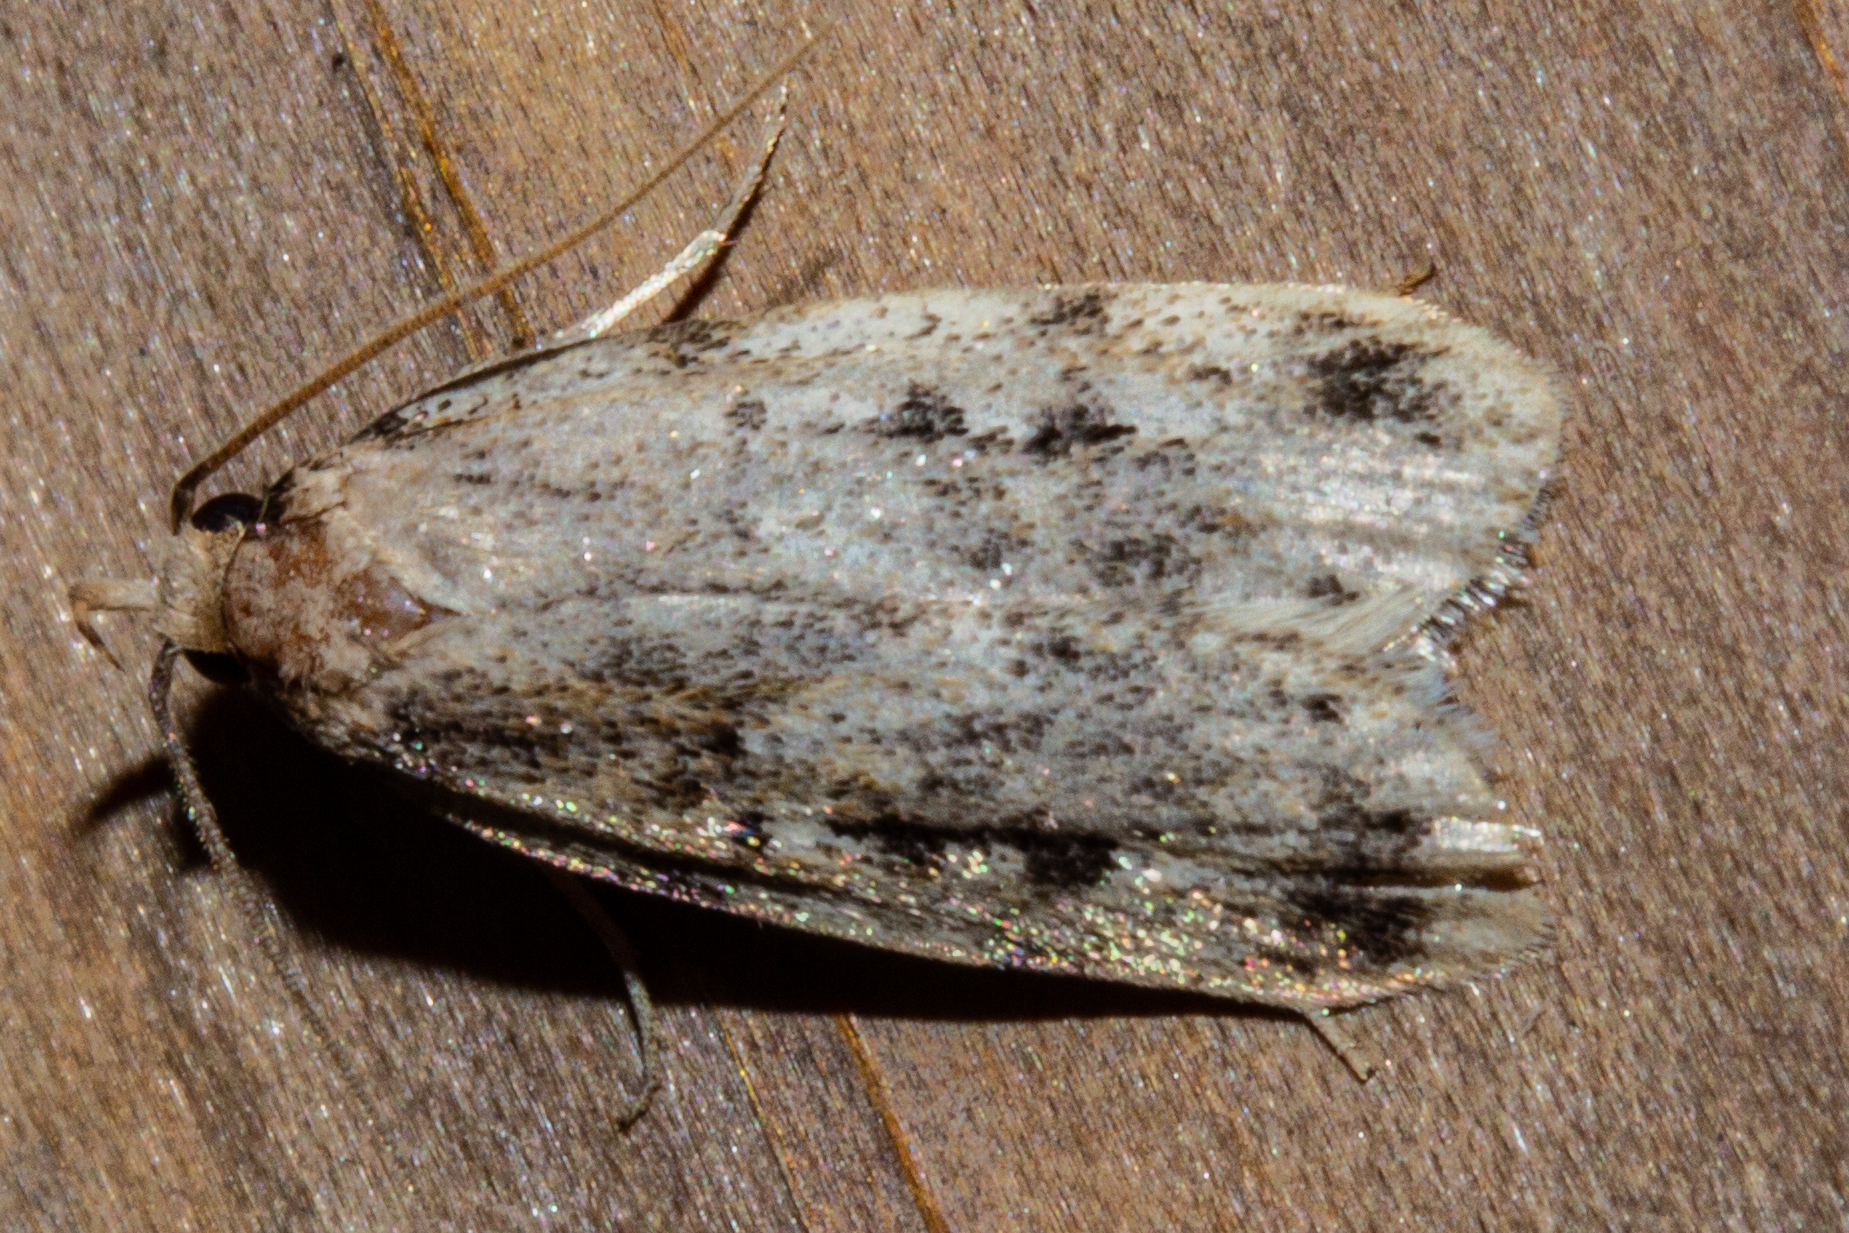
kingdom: Animalia
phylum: Arthropoda
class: Insecta
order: Lepidoptera
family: Oecophoridae
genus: Barea
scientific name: Barea exarcha
